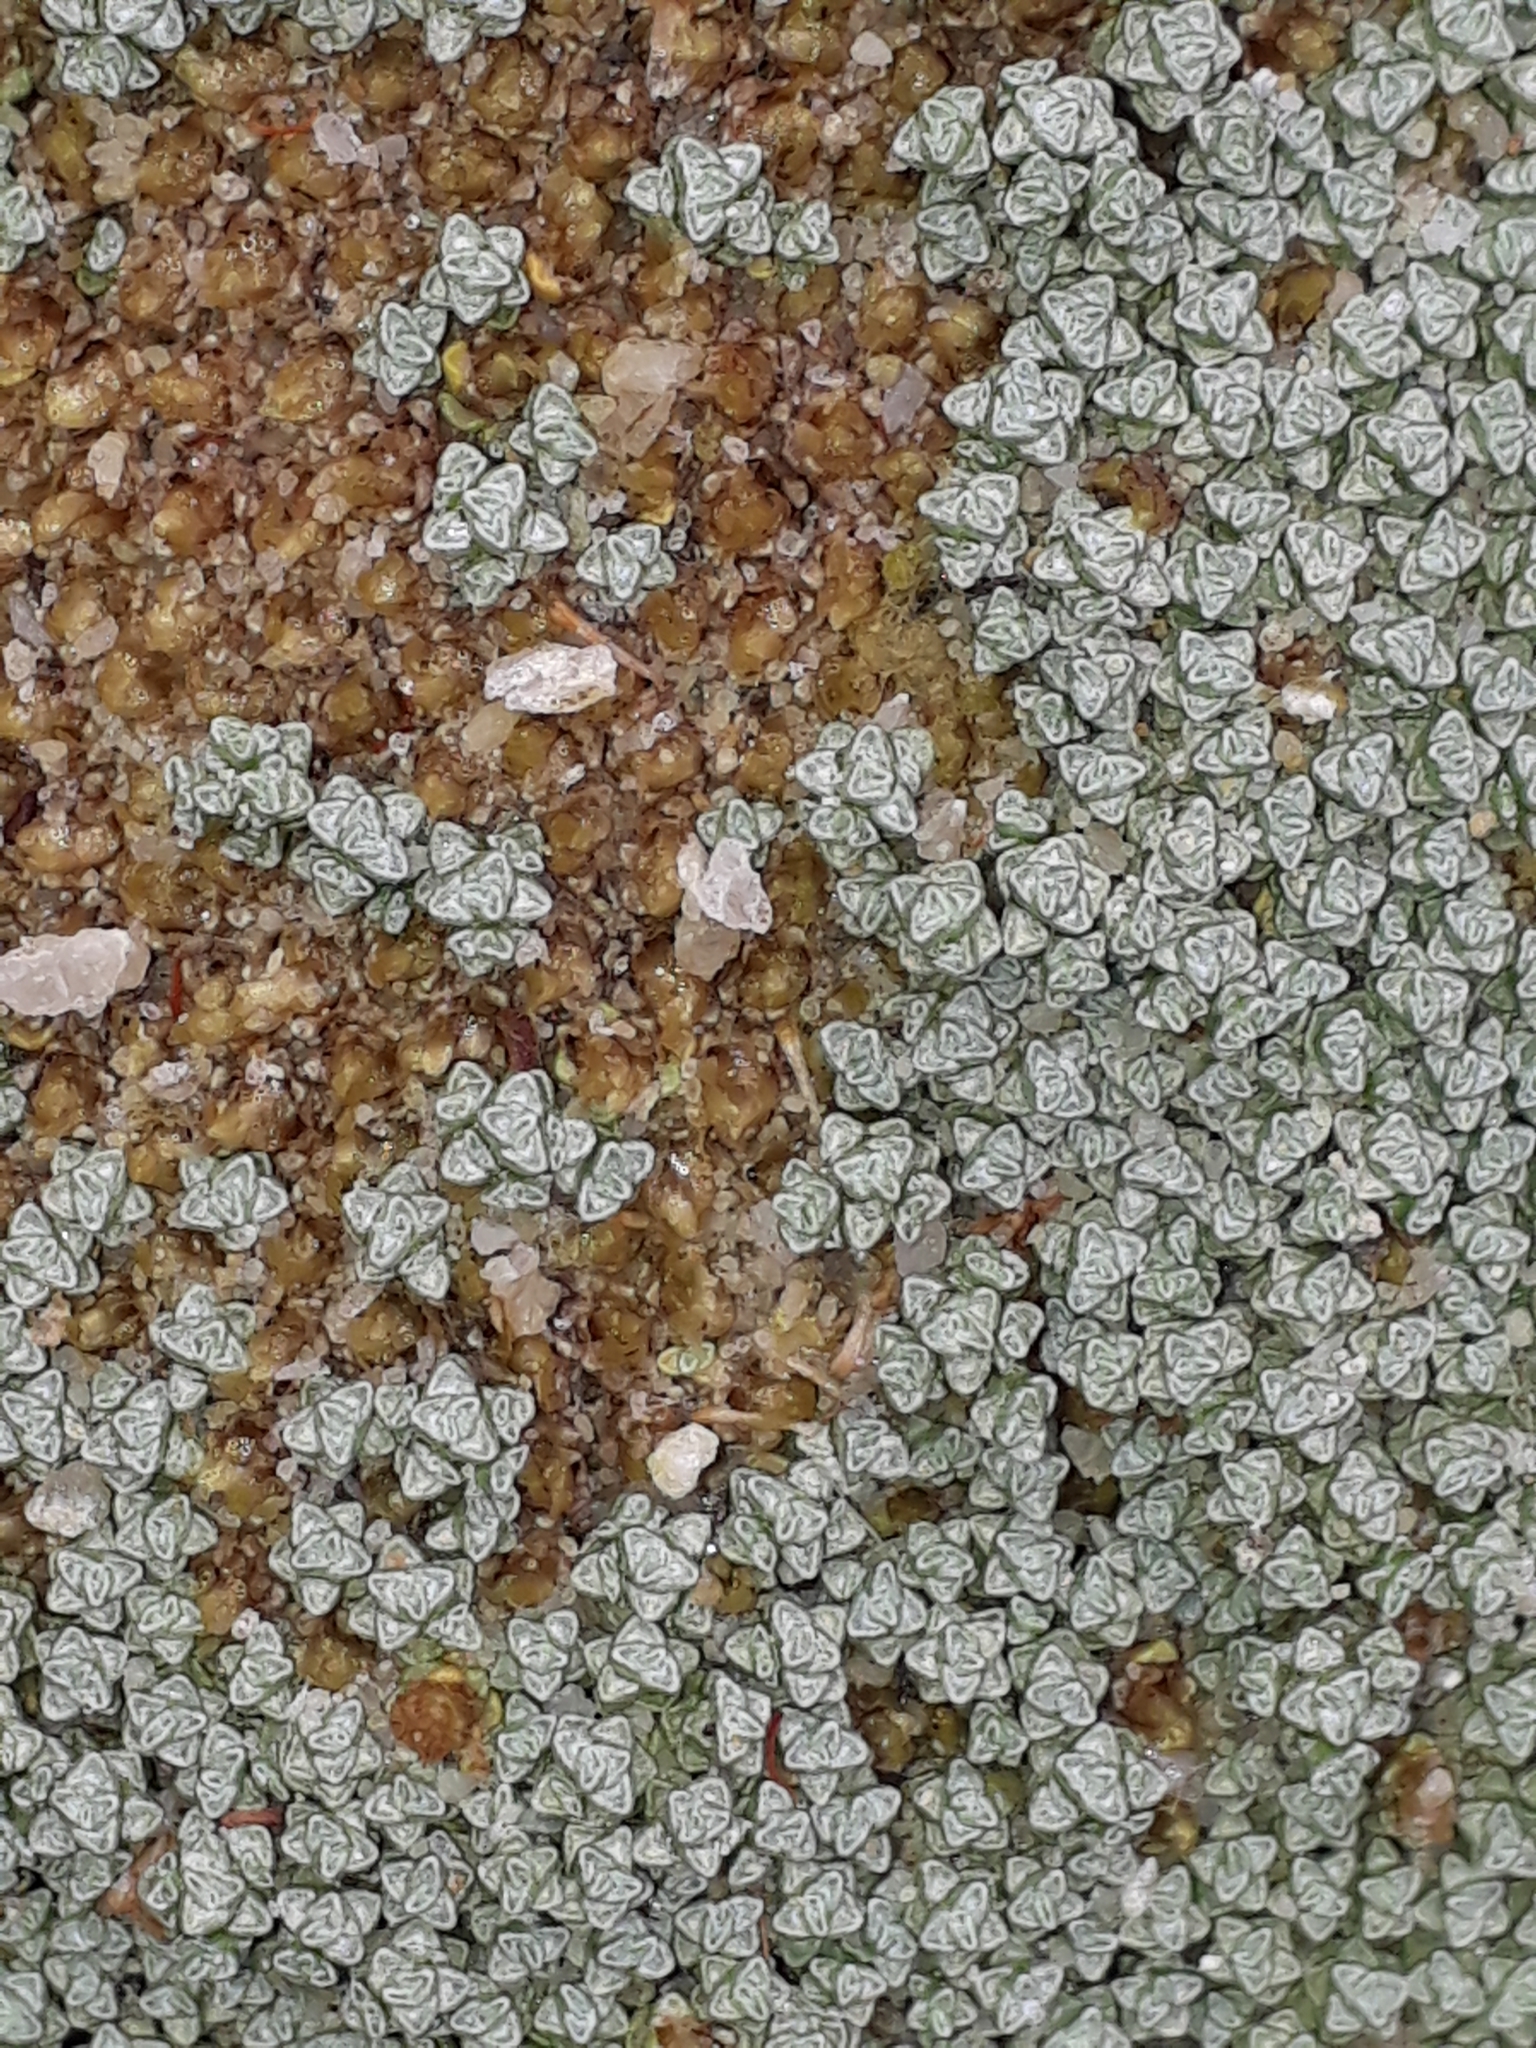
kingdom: Plantae
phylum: Tracheophyta
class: Magnoliopsida
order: Asterales
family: Asteraceae
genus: Raoulia
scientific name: Raoulia australis
